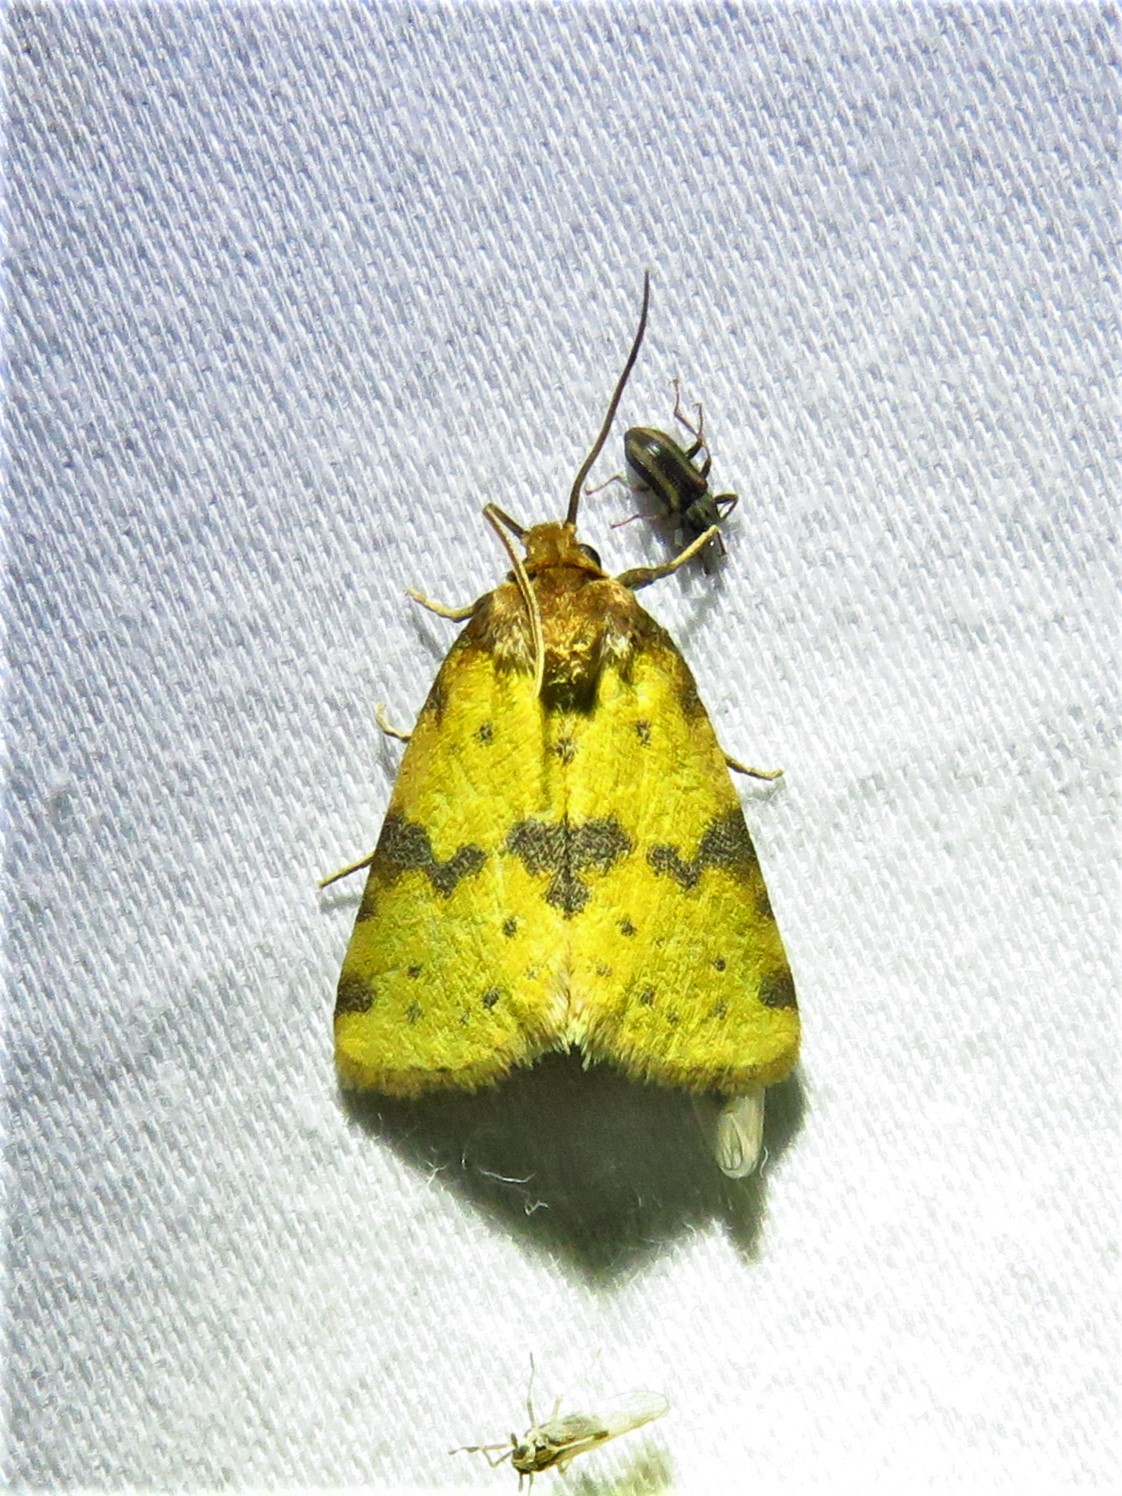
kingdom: Animalia
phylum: Arthropoda
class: Insecta
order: Lepidoptera
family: Noctuidae
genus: Azenia
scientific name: Azenia obtusa
